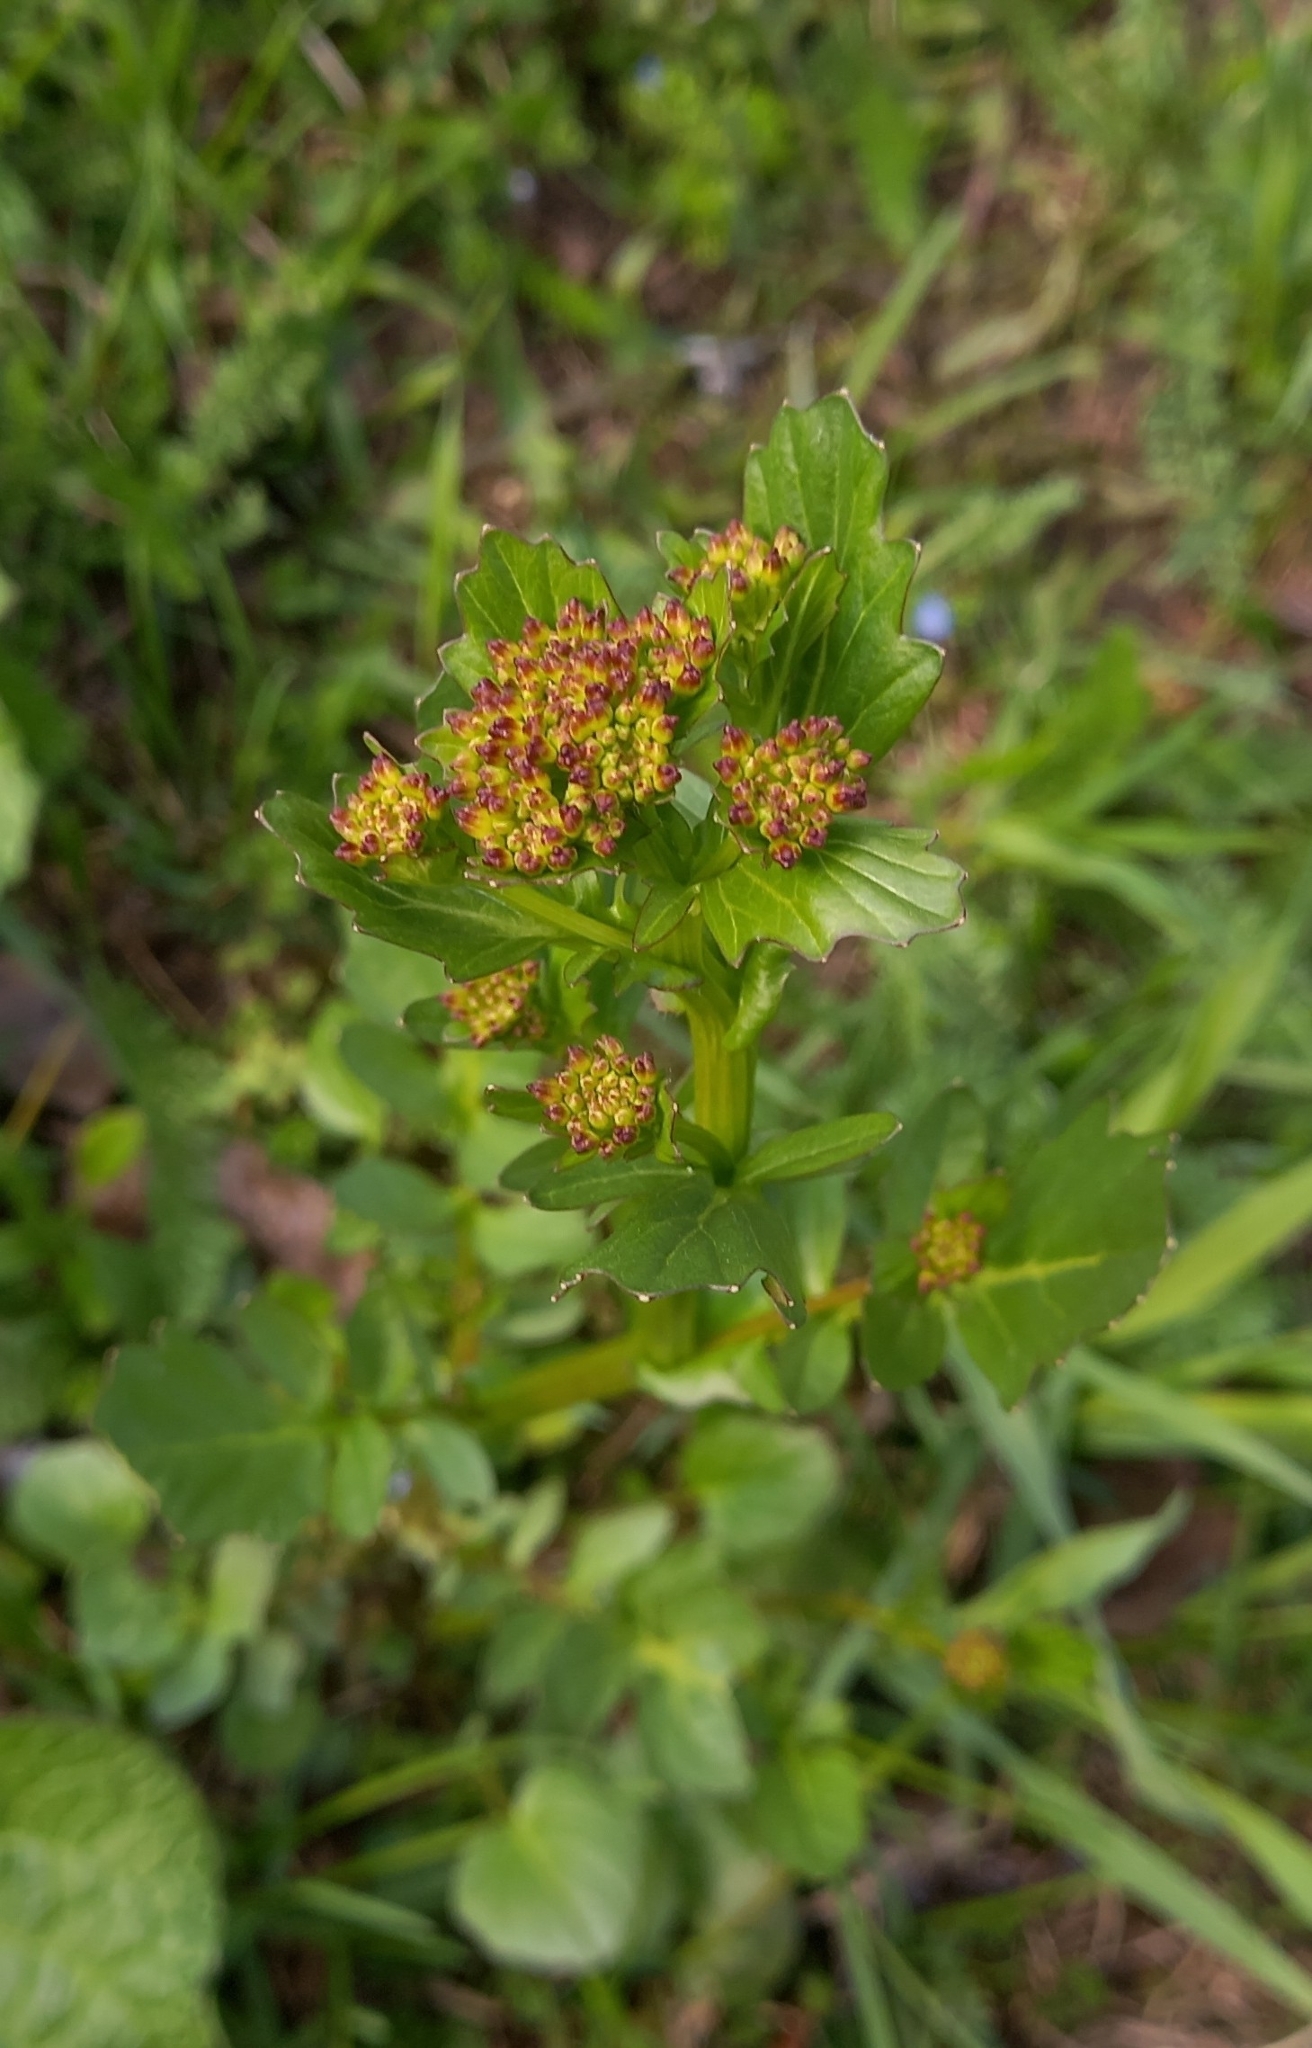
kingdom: Plantae
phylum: Tracheophyta
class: Magnoliopsida
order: Brassicales
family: Brassicaceae
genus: Barbarea
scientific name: Barbarea vulgaris
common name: Cressy-greens
